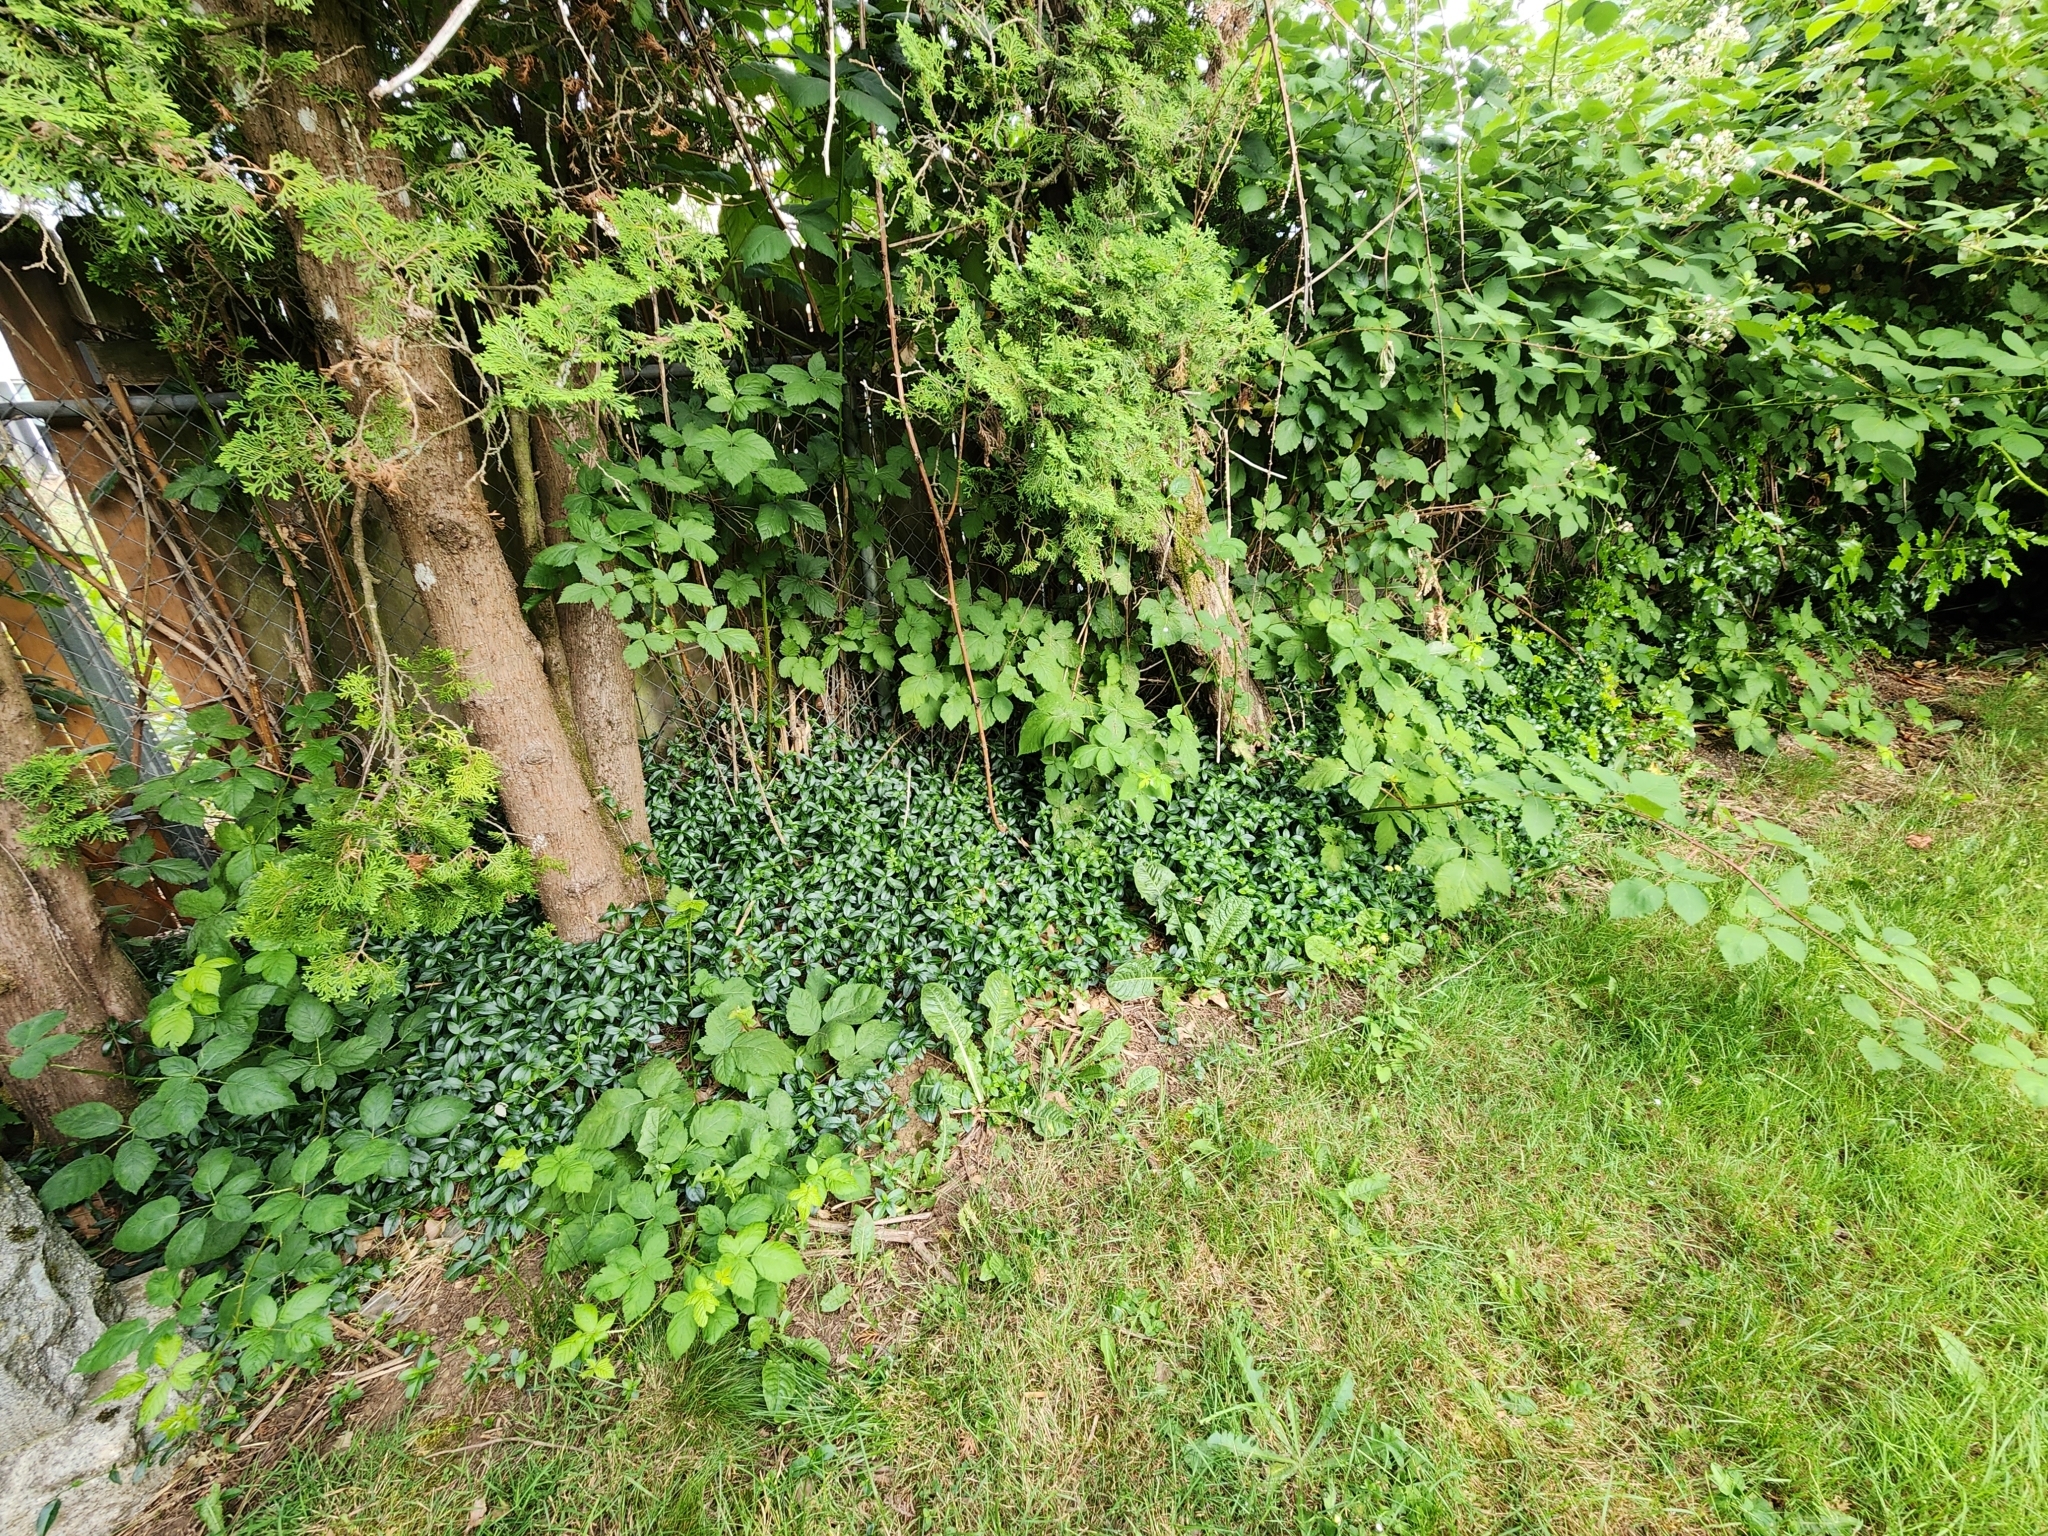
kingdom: Plantae
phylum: Tracheophyta
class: Magnoliopsida
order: Gentianales
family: Apocynaceae
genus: Vinca
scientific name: Vinca minor
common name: Lesser periwinkle
